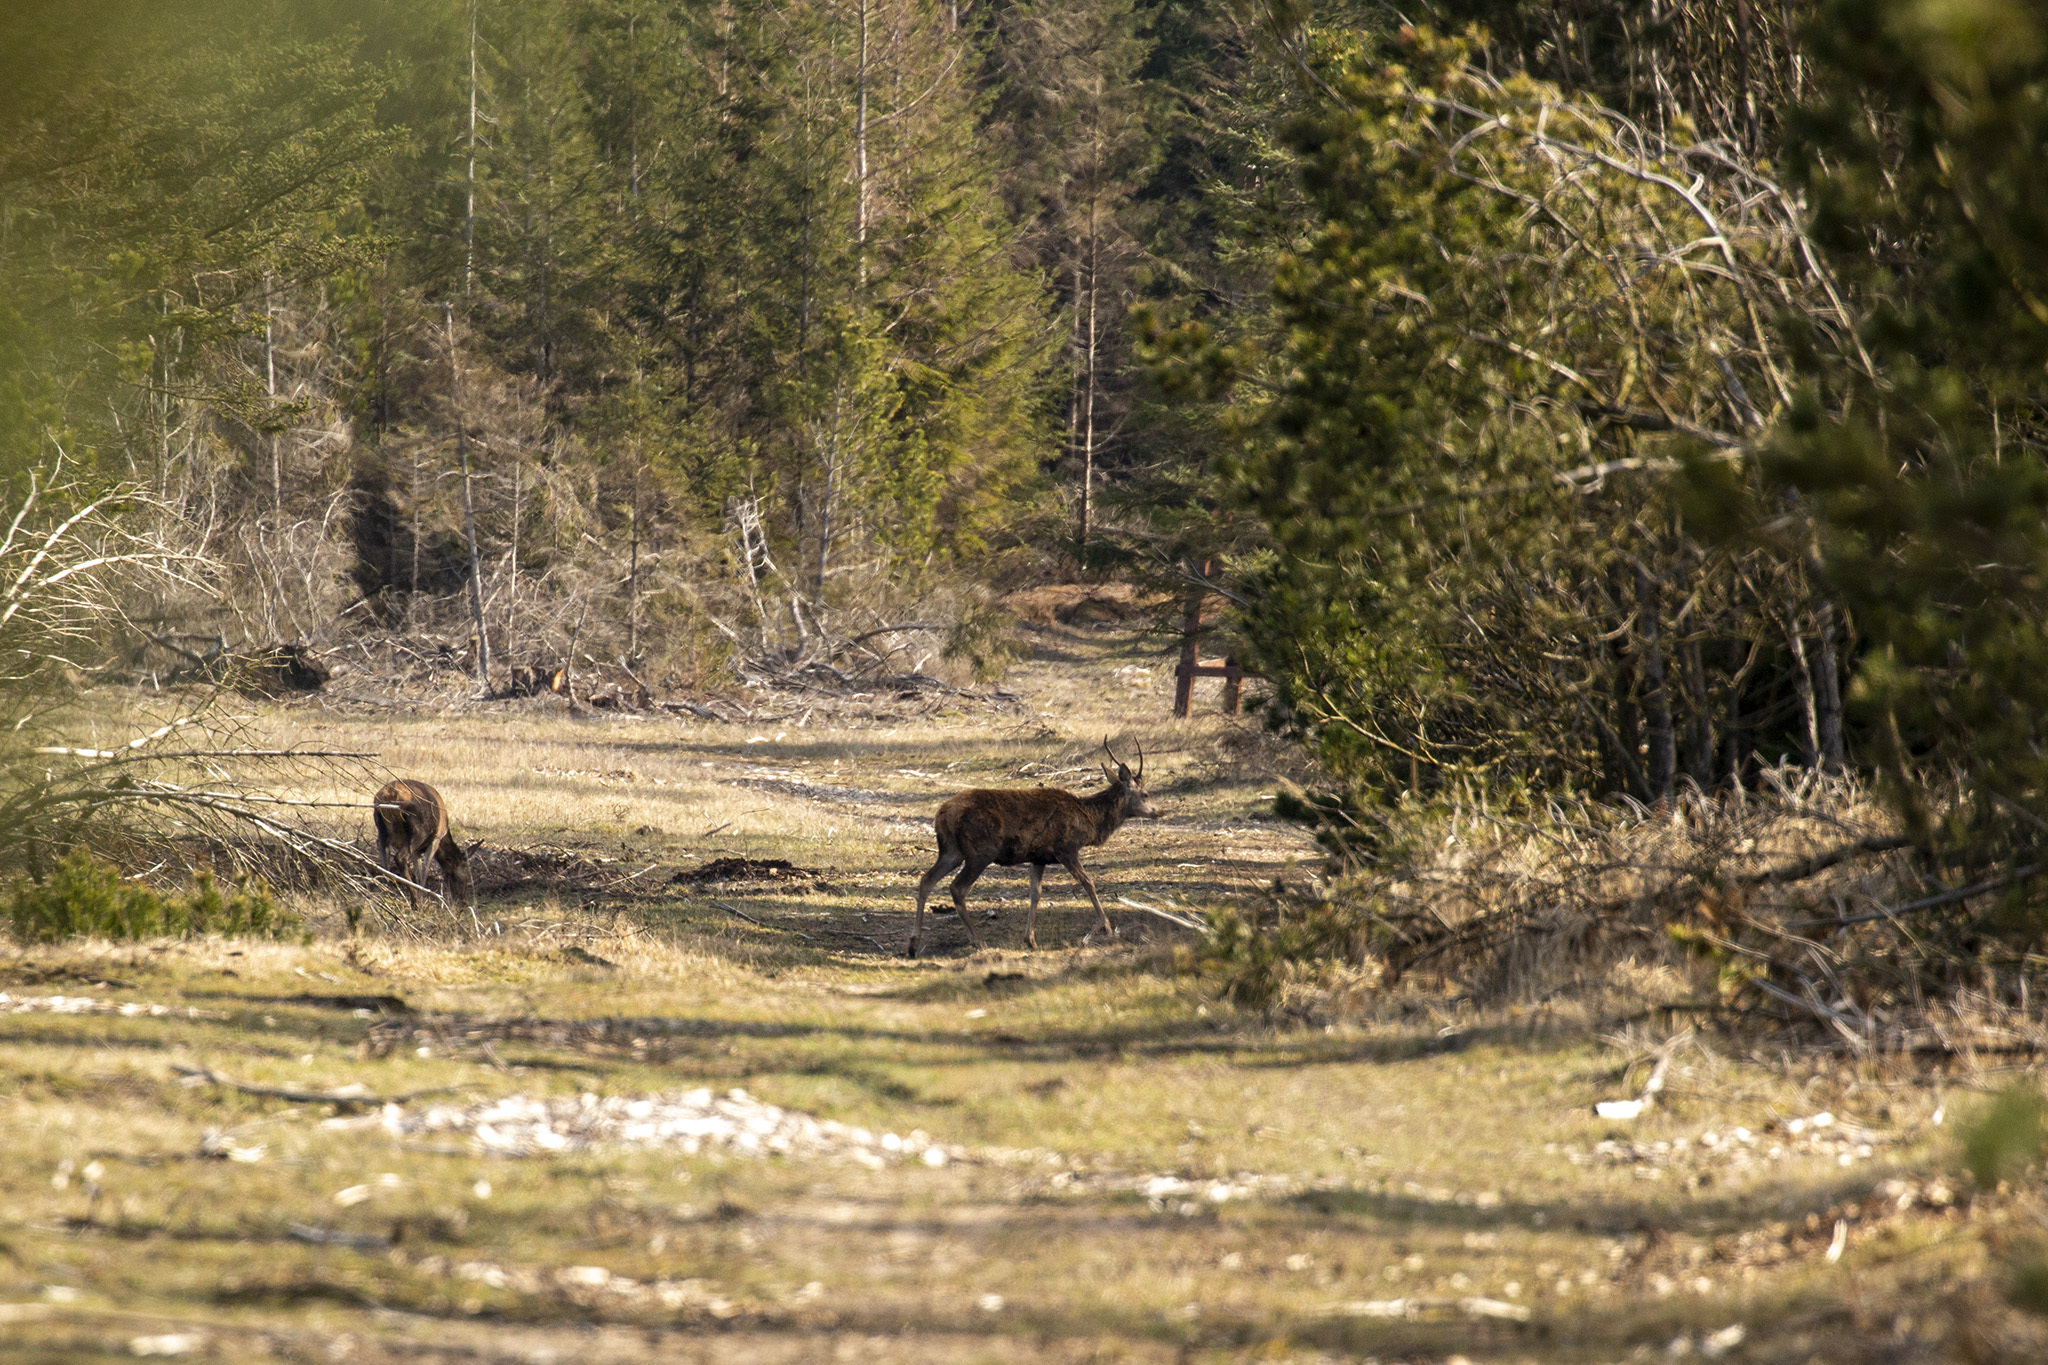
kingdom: Animalia
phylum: Chordata
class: Mammalia
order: Artiodactyla
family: Cervidae
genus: Cervus
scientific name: Cervus elaphus
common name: Red deer
